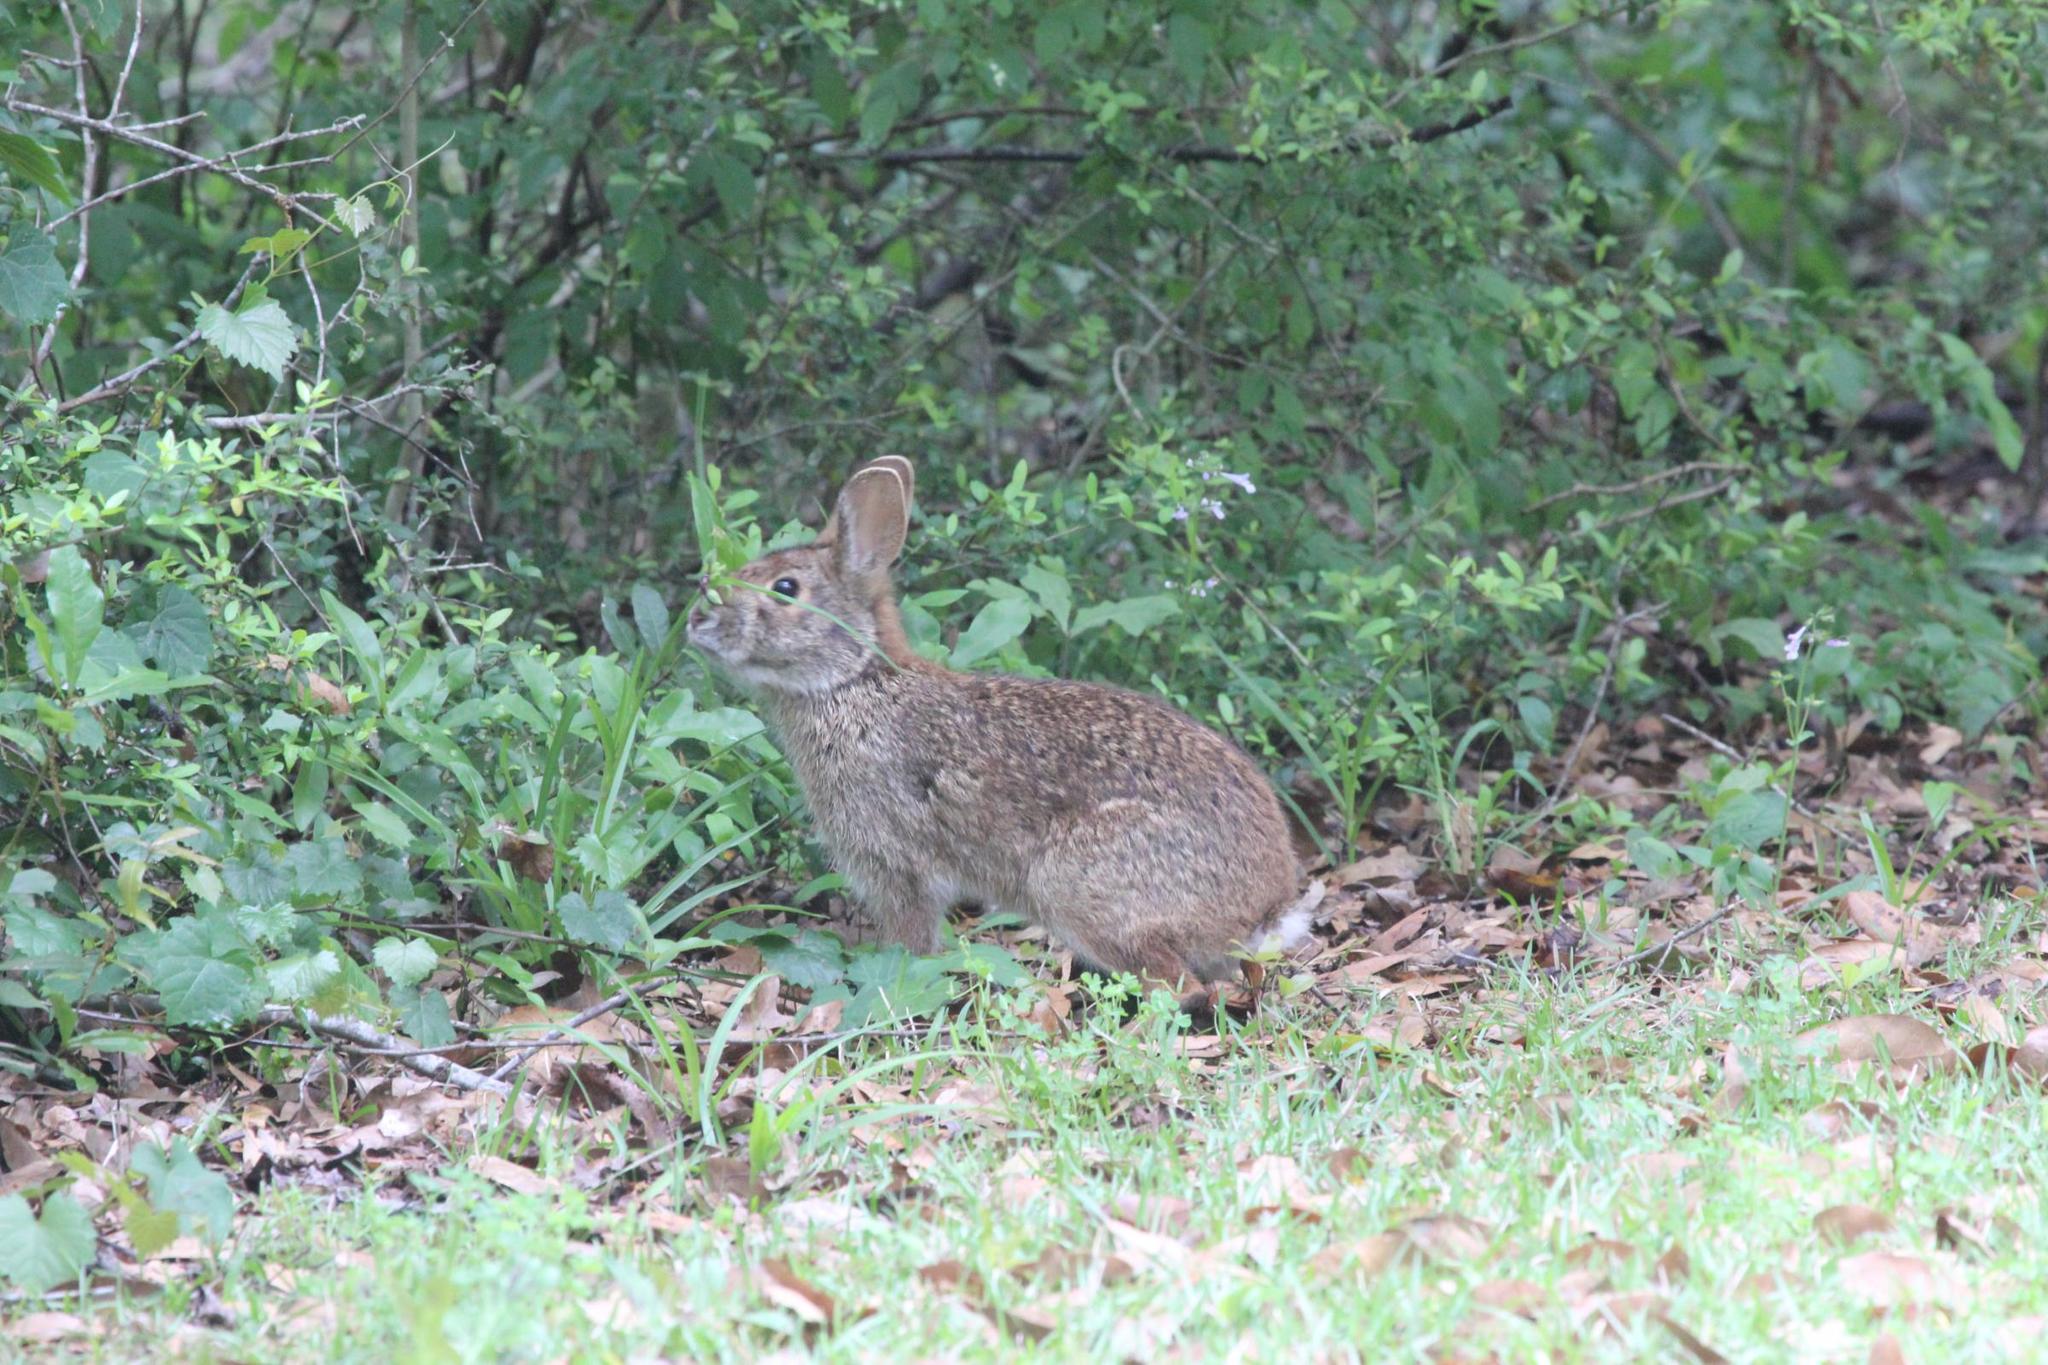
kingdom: Animalia
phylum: Chordata
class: Mammalia
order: Lagomorpha
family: Leporidae
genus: Sylvilagus
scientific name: Sylvilagus aquaticus
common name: Swamp rabbit
